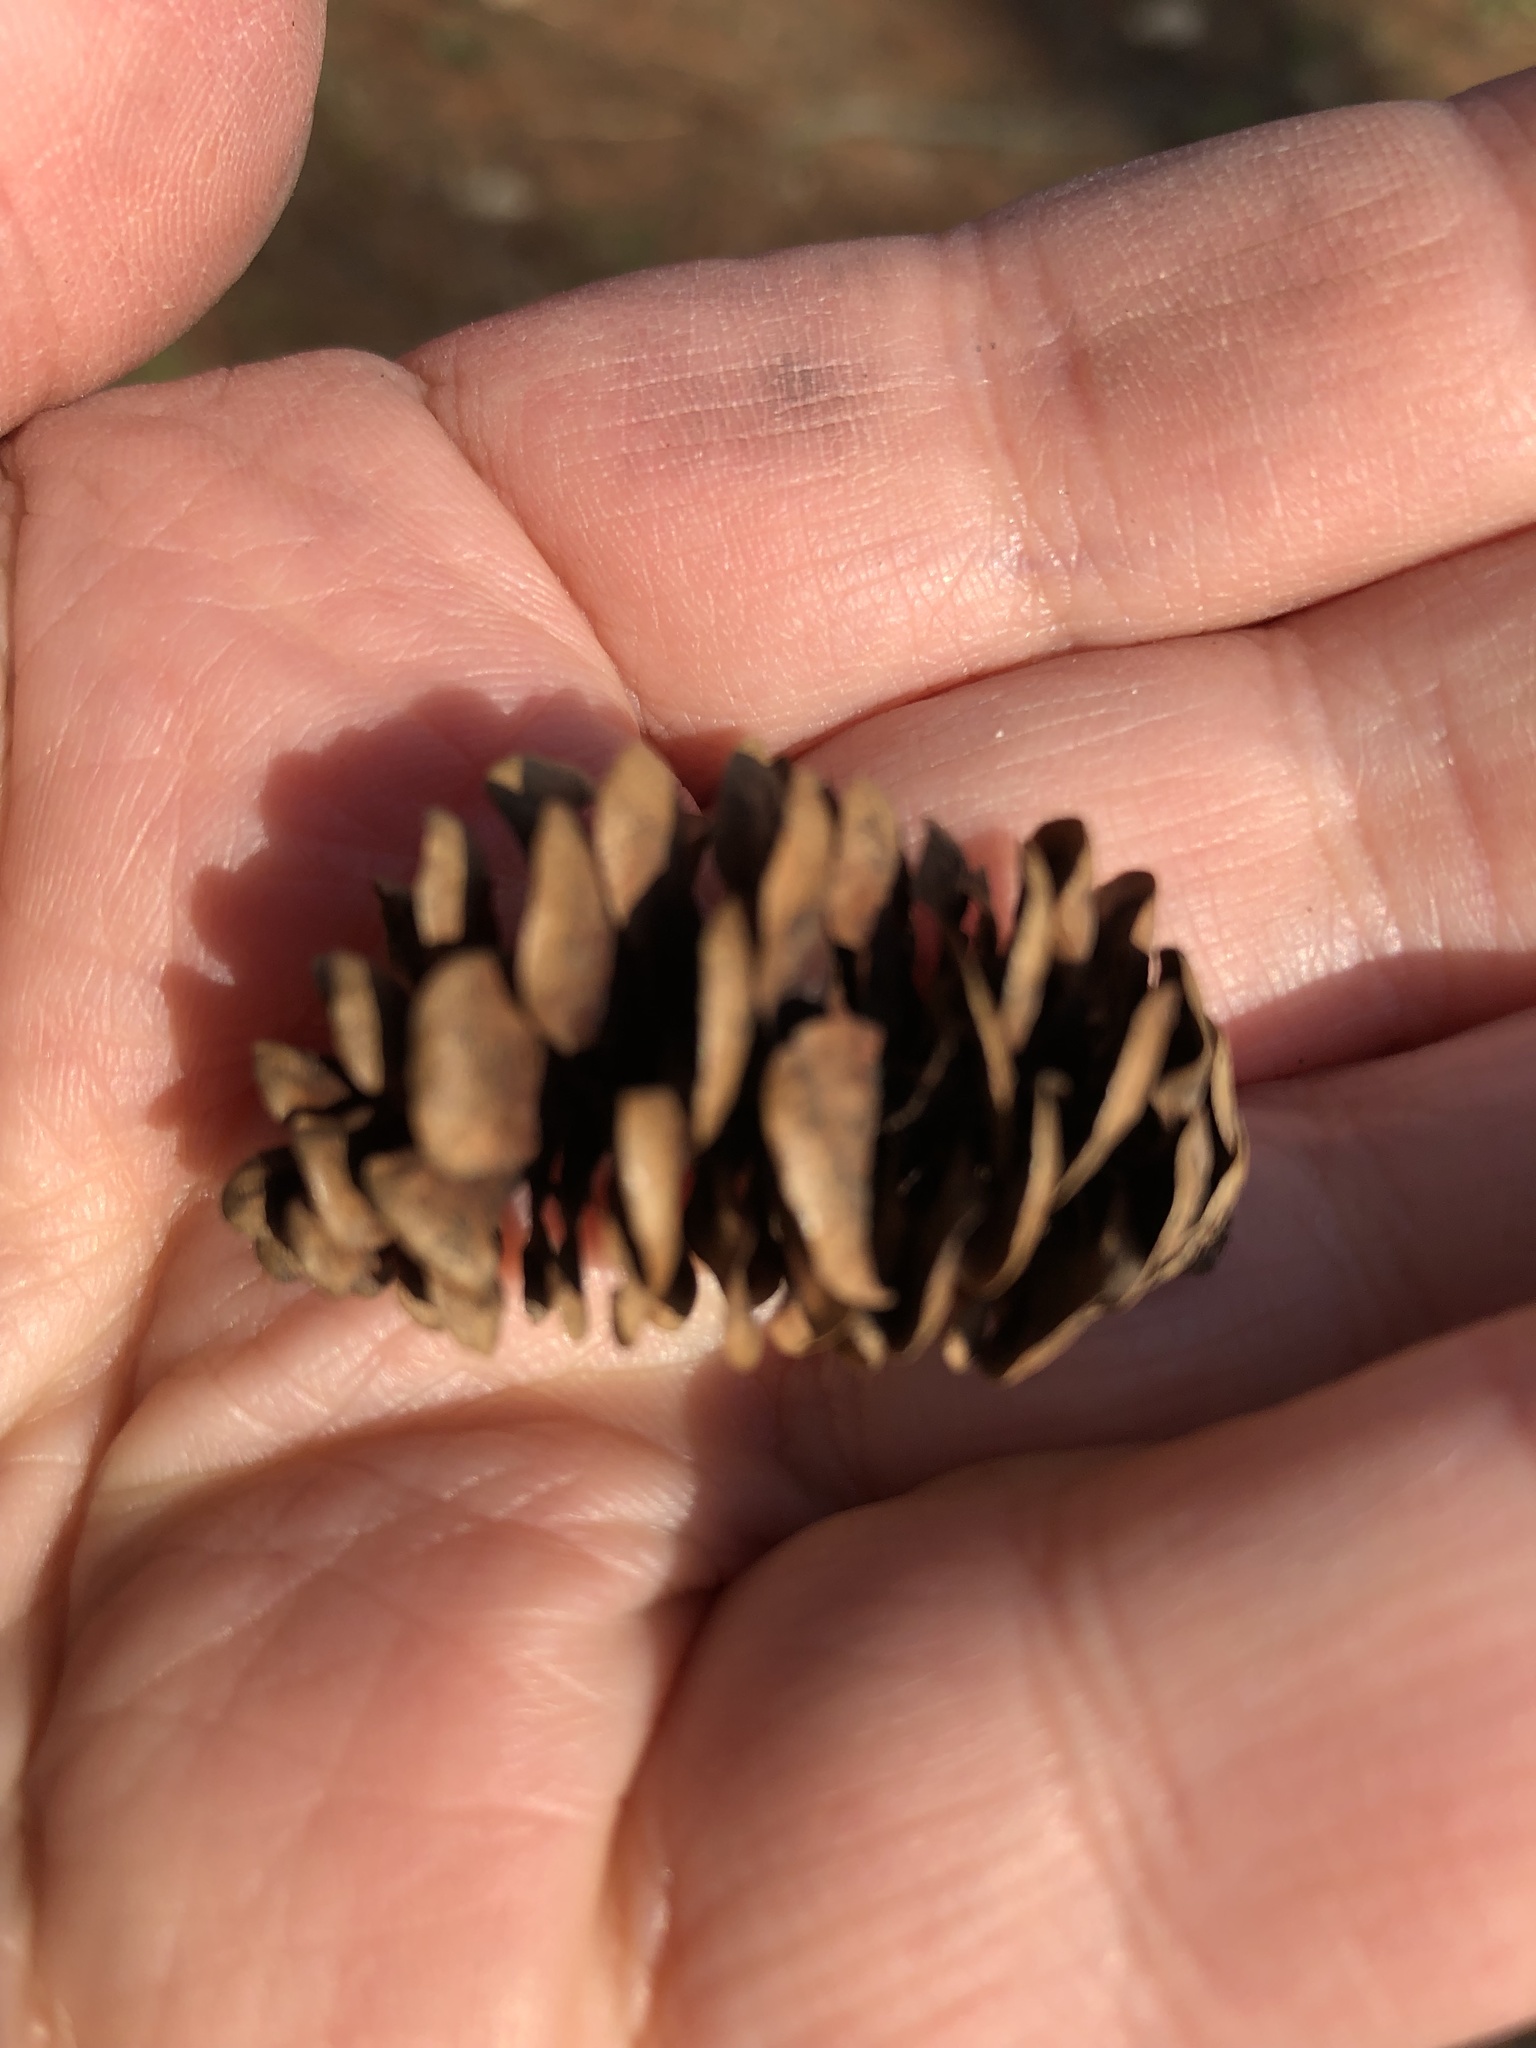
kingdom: Plantae
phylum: Tracheophyta
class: Pinopsida
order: Pinales
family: Pinaceae
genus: Picea
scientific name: Picea glauca
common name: White spruce
